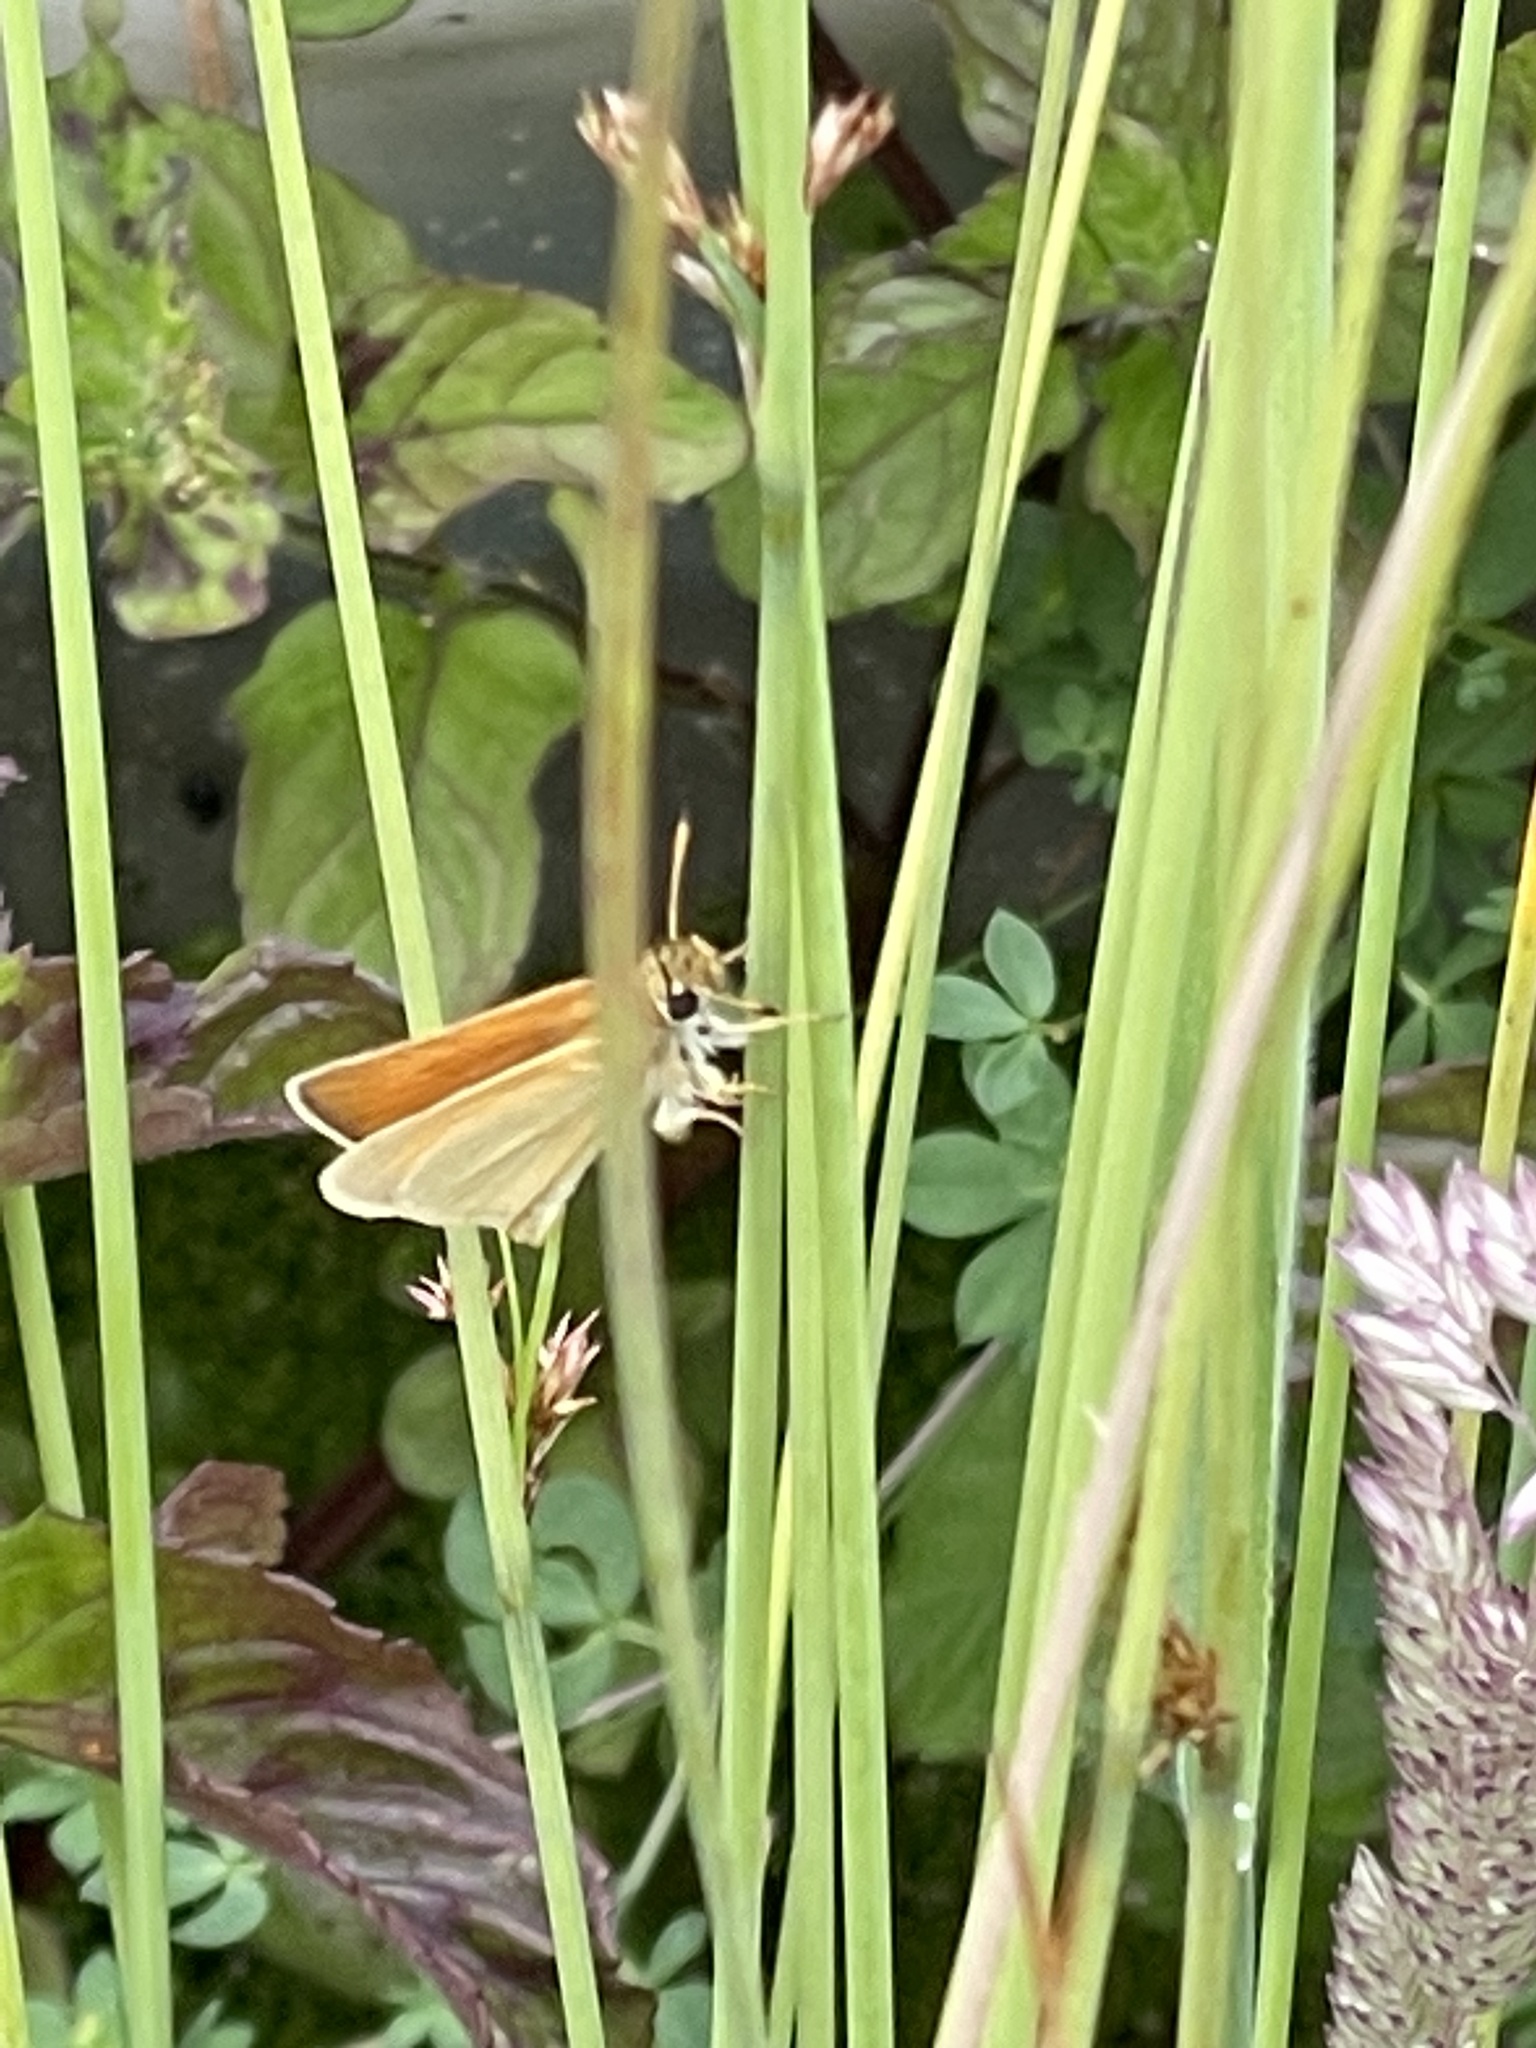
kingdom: Animalia
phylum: Arthropoda
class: Insecta
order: Lepidoptera
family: Hesperiidae
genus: Thymelicus
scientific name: Thymelicus lineola
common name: Essex skipper
